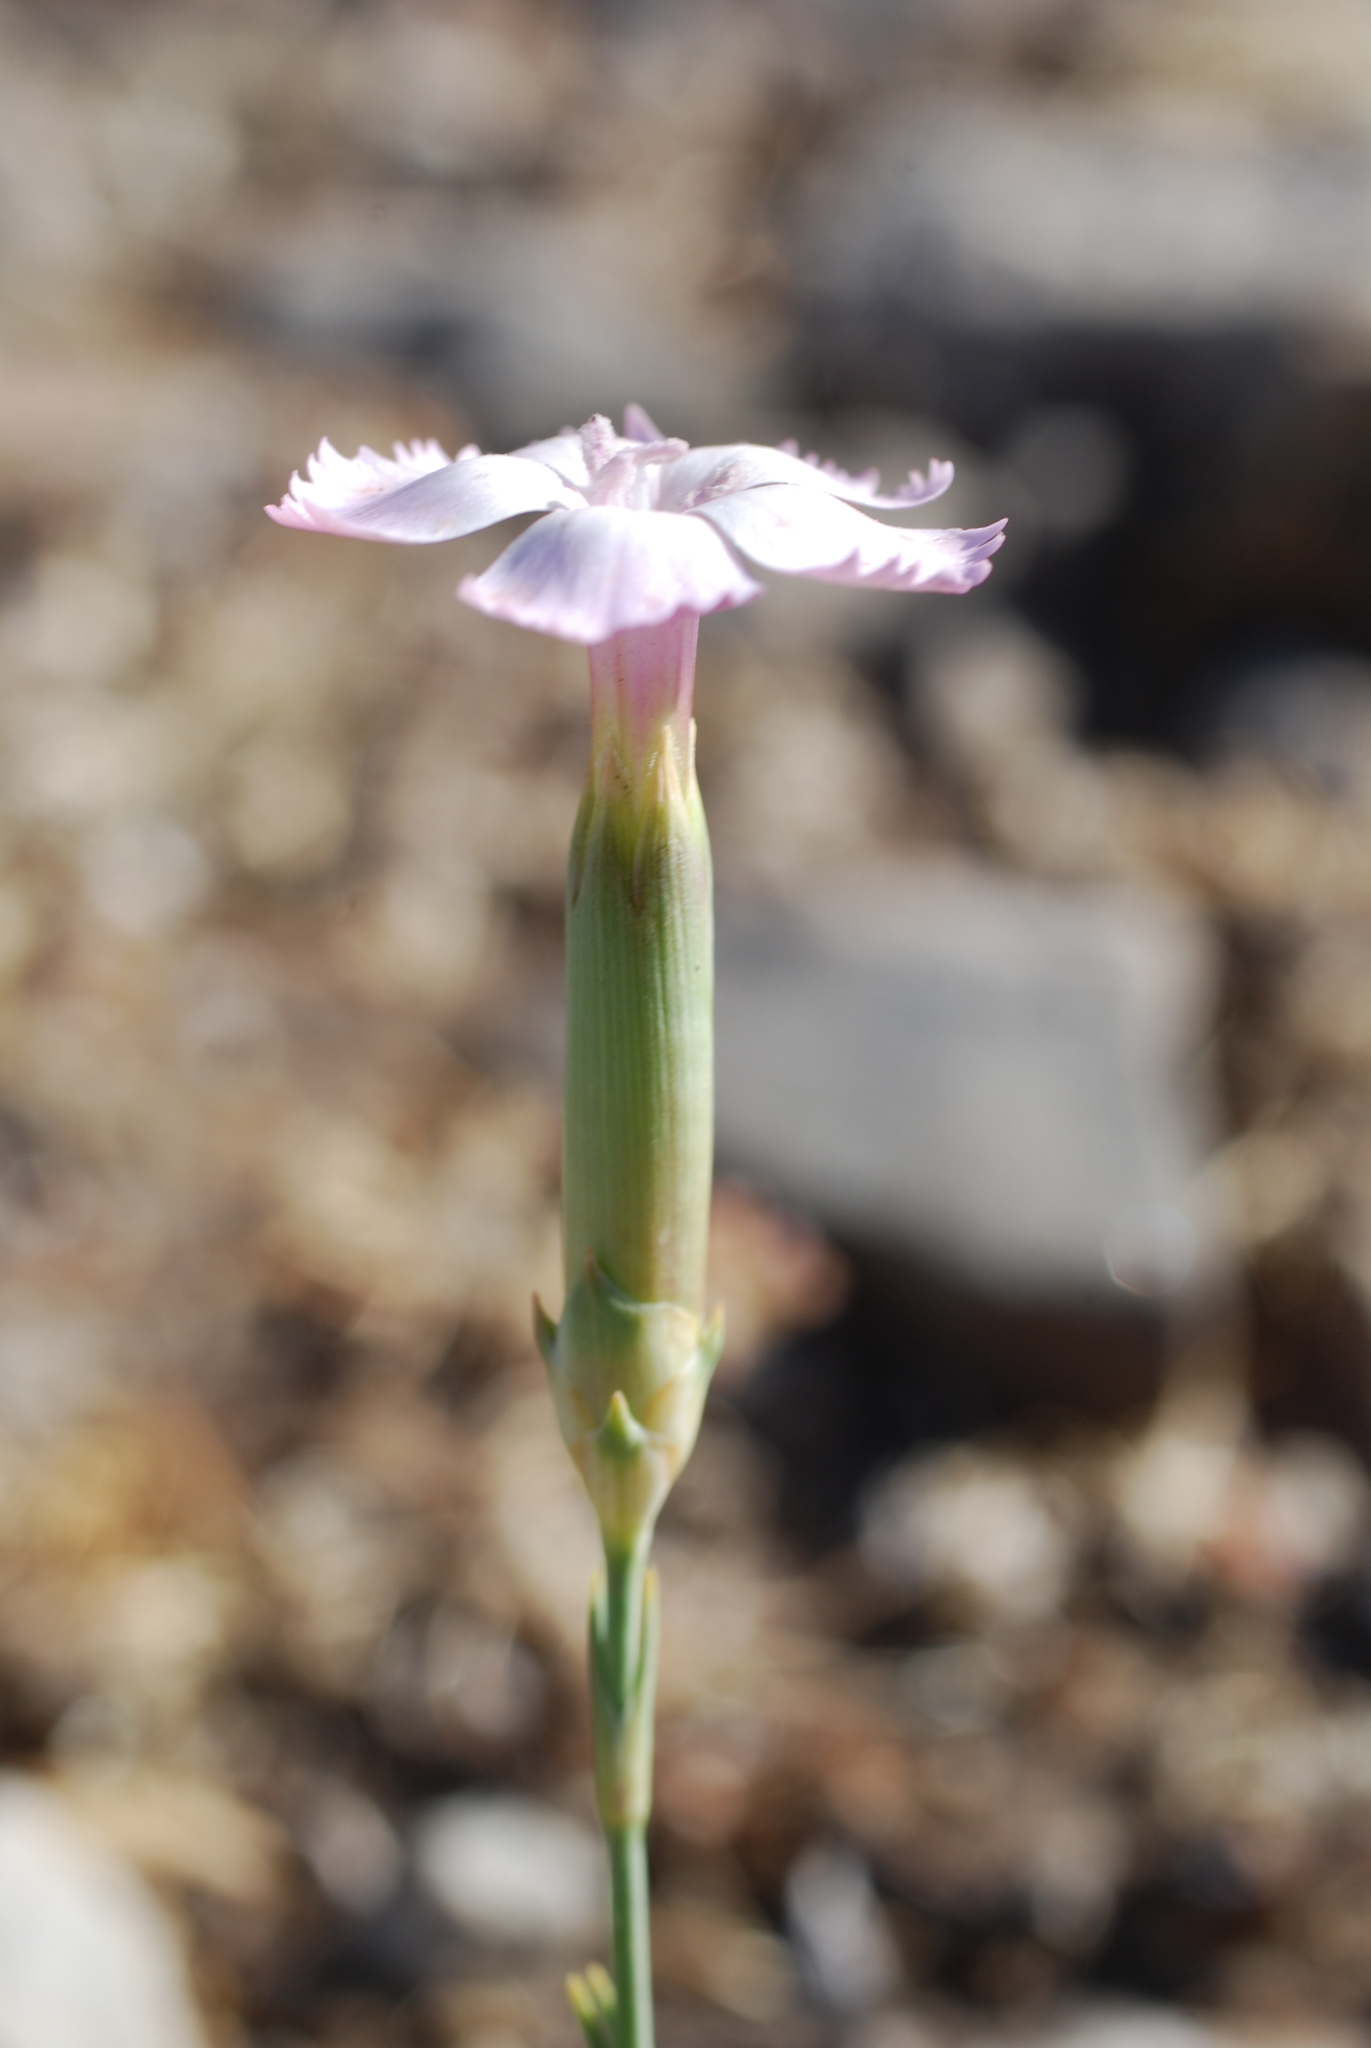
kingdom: Plantae
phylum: Tracheophyta
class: Magnoliopsida
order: Caryophyllales
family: Caryophyllaceae
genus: Dianthus
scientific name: Dianthus sylvestris
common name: Wood pink
